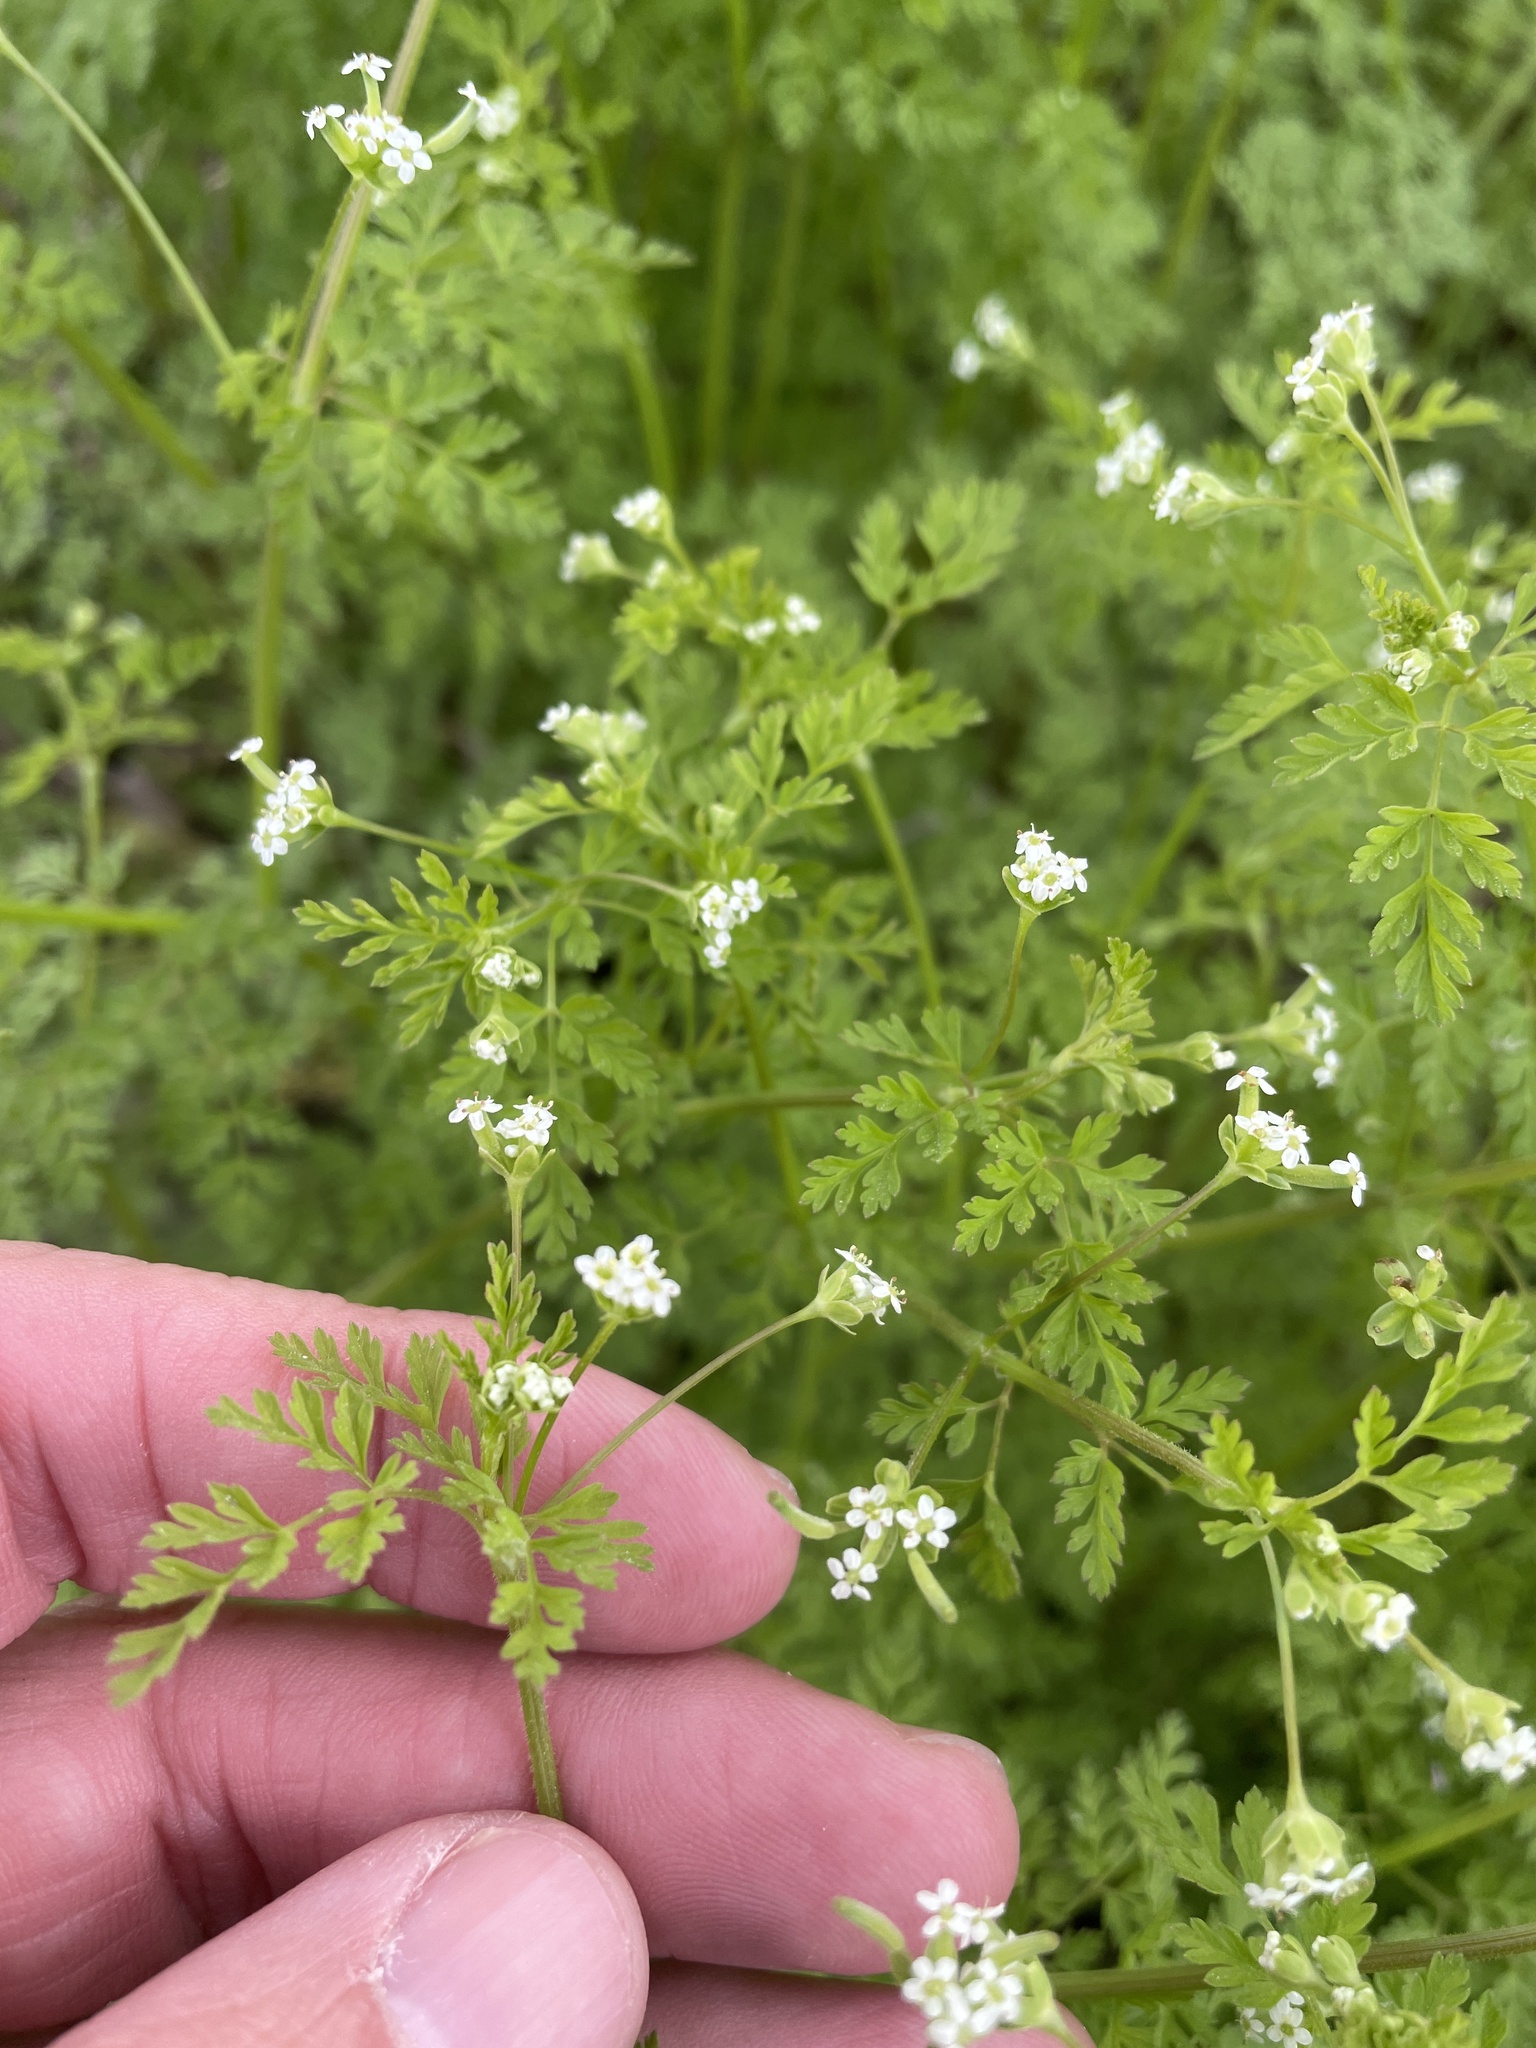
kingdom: Plantae
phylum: Tracheophyta
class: Magnoliopsida
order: Apiales
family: Apiaceae
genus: Chaerophyllum
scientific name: Chaerophyllum tainturieri
